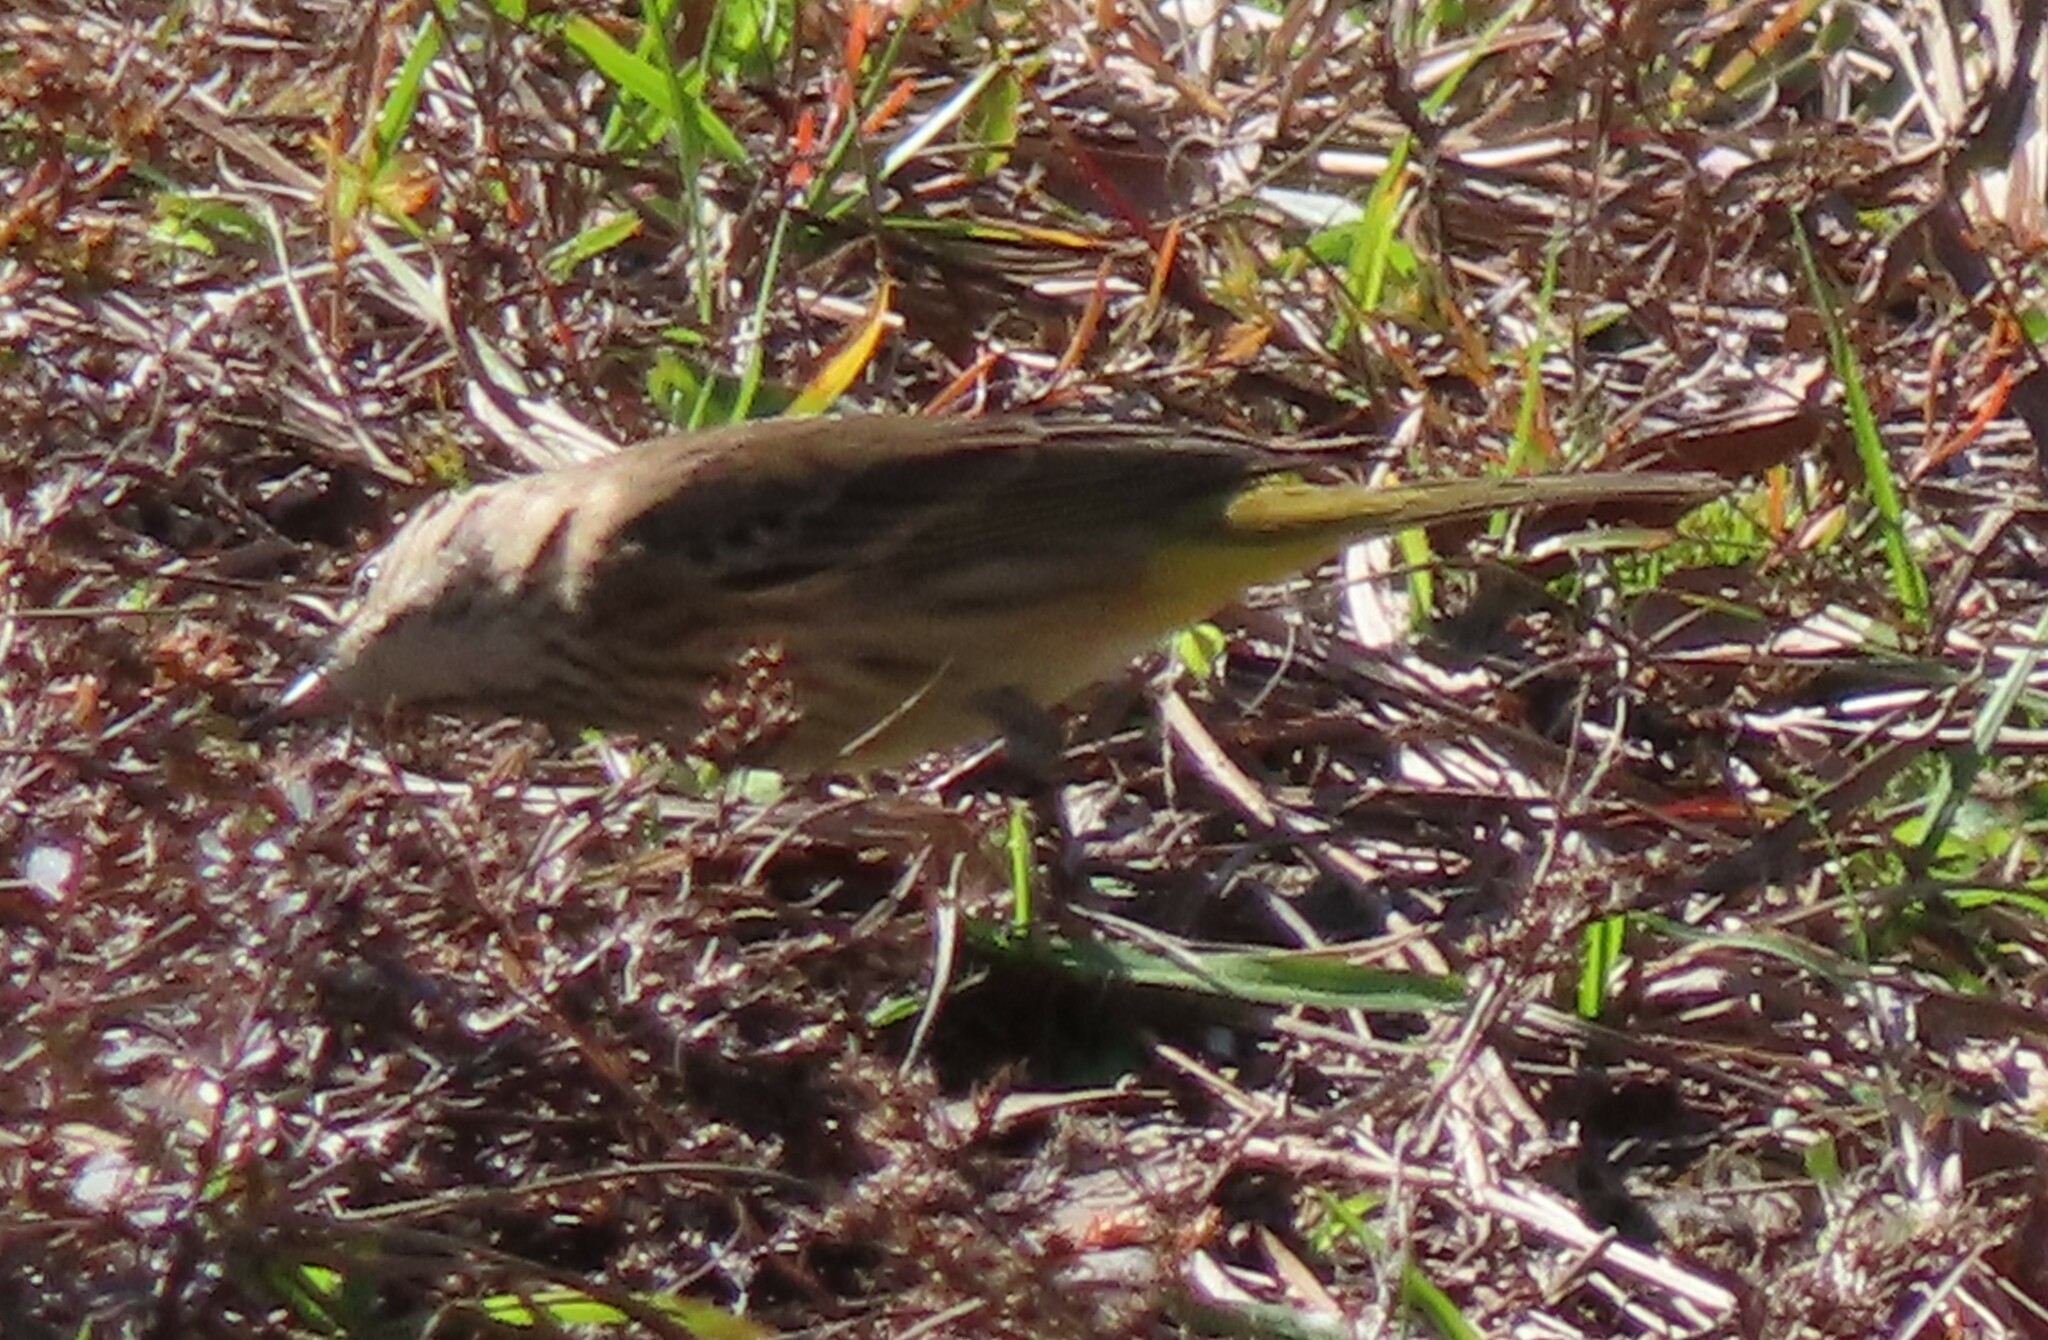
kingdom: Animalia
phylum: Chordata
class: Aves
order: Passeriformes
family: Parulidae
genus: Setophaga
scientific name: Setophaga palmarum
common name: Palm warbler
